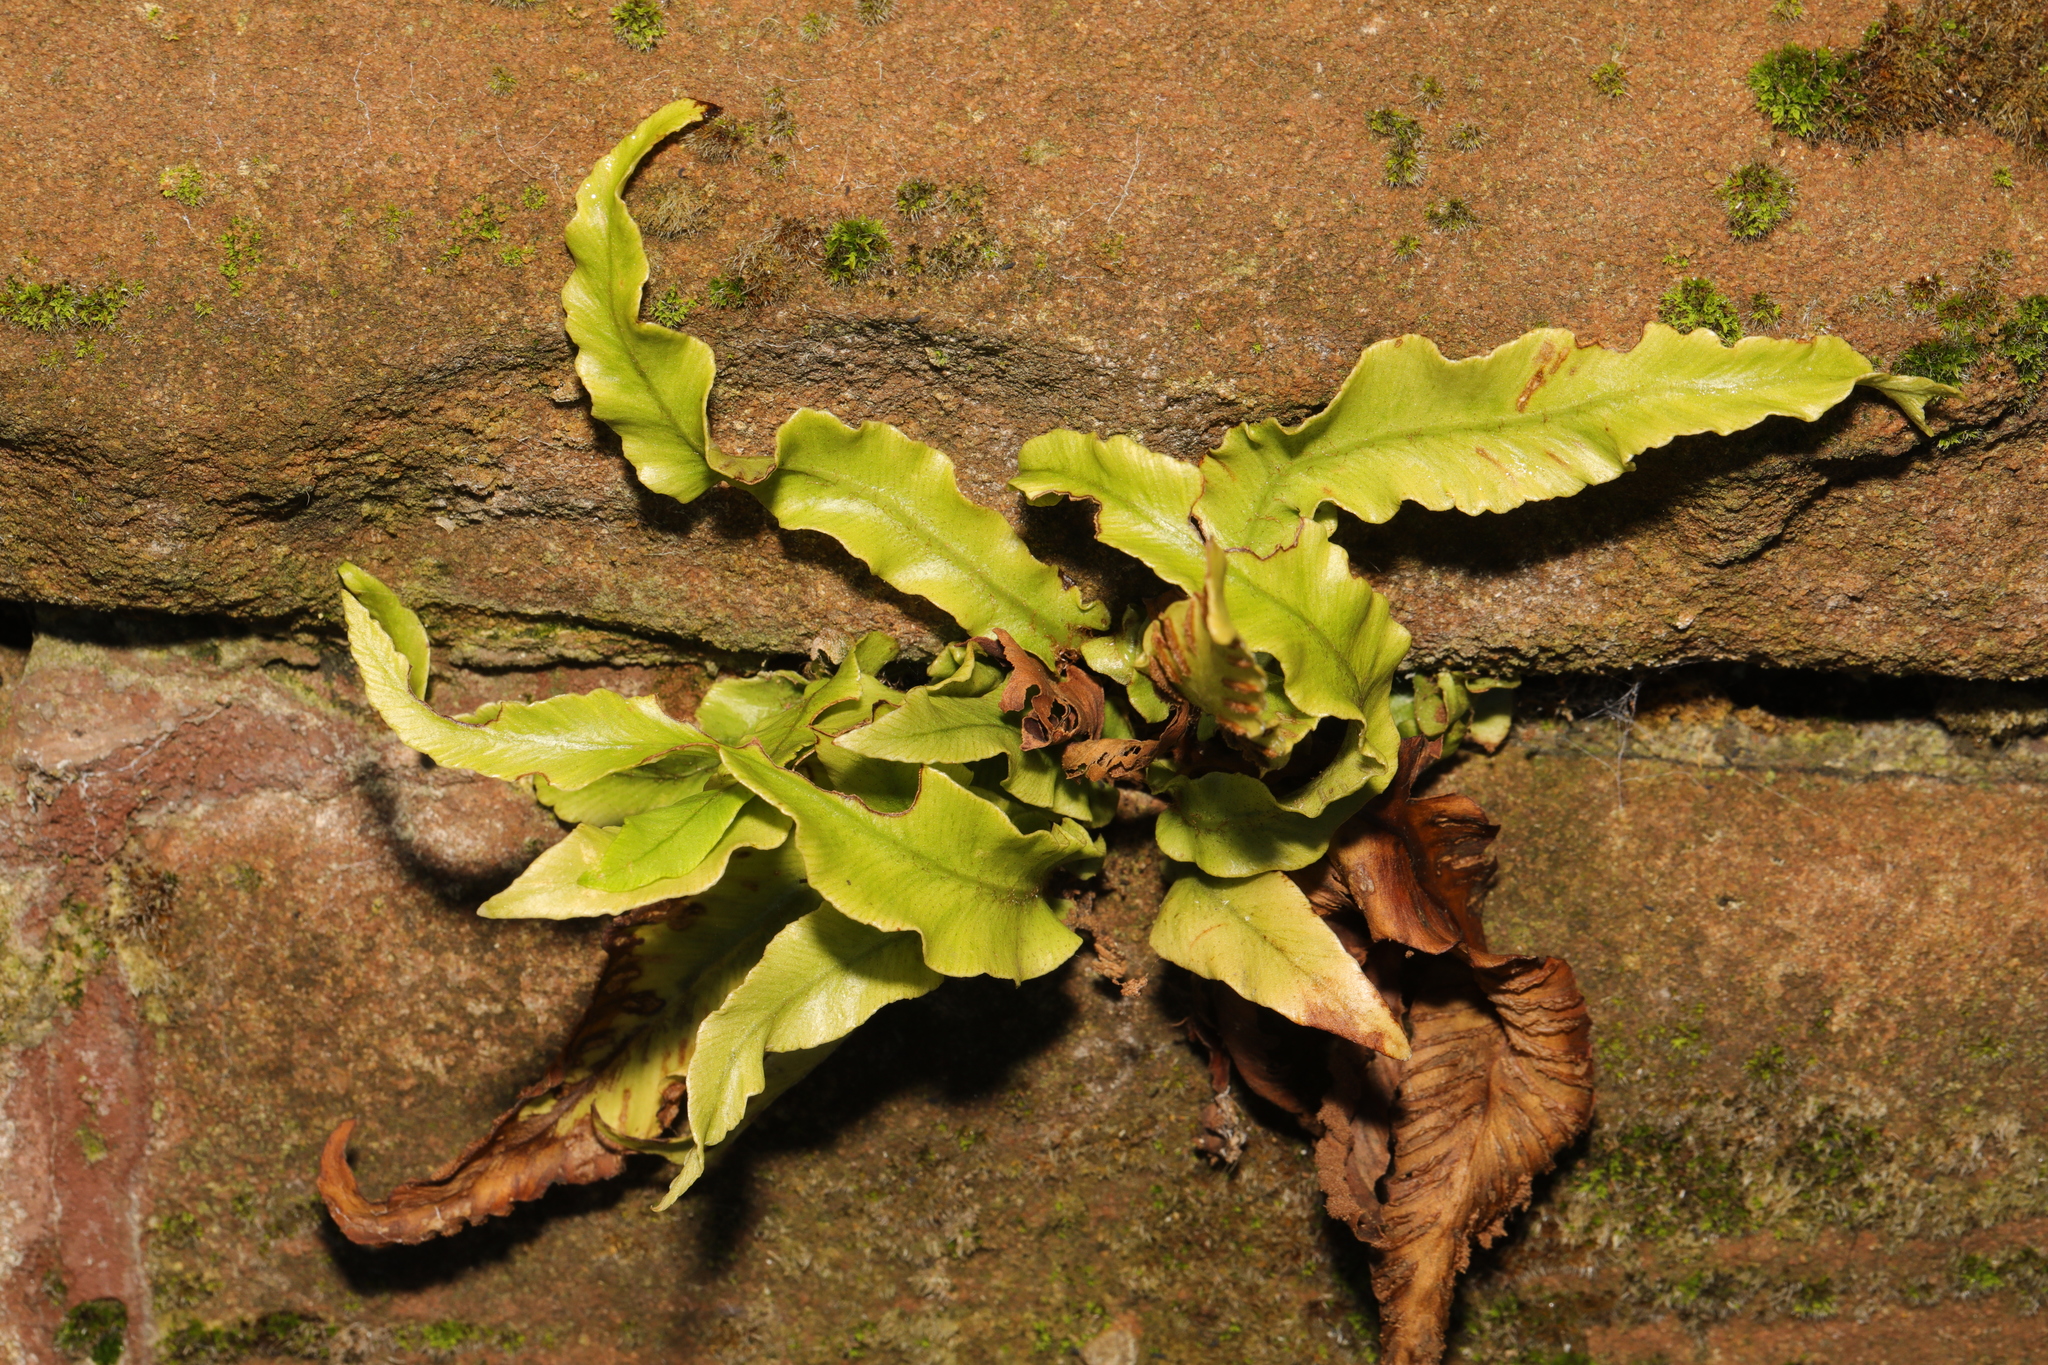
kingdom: Plantae
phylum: Tracheophyta
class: Polypodiopsida
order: Polypodiales
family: Aspleniaceae
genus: Asplenium
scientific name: Asplenium scolopendrium
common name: Hart's-tongue fern
